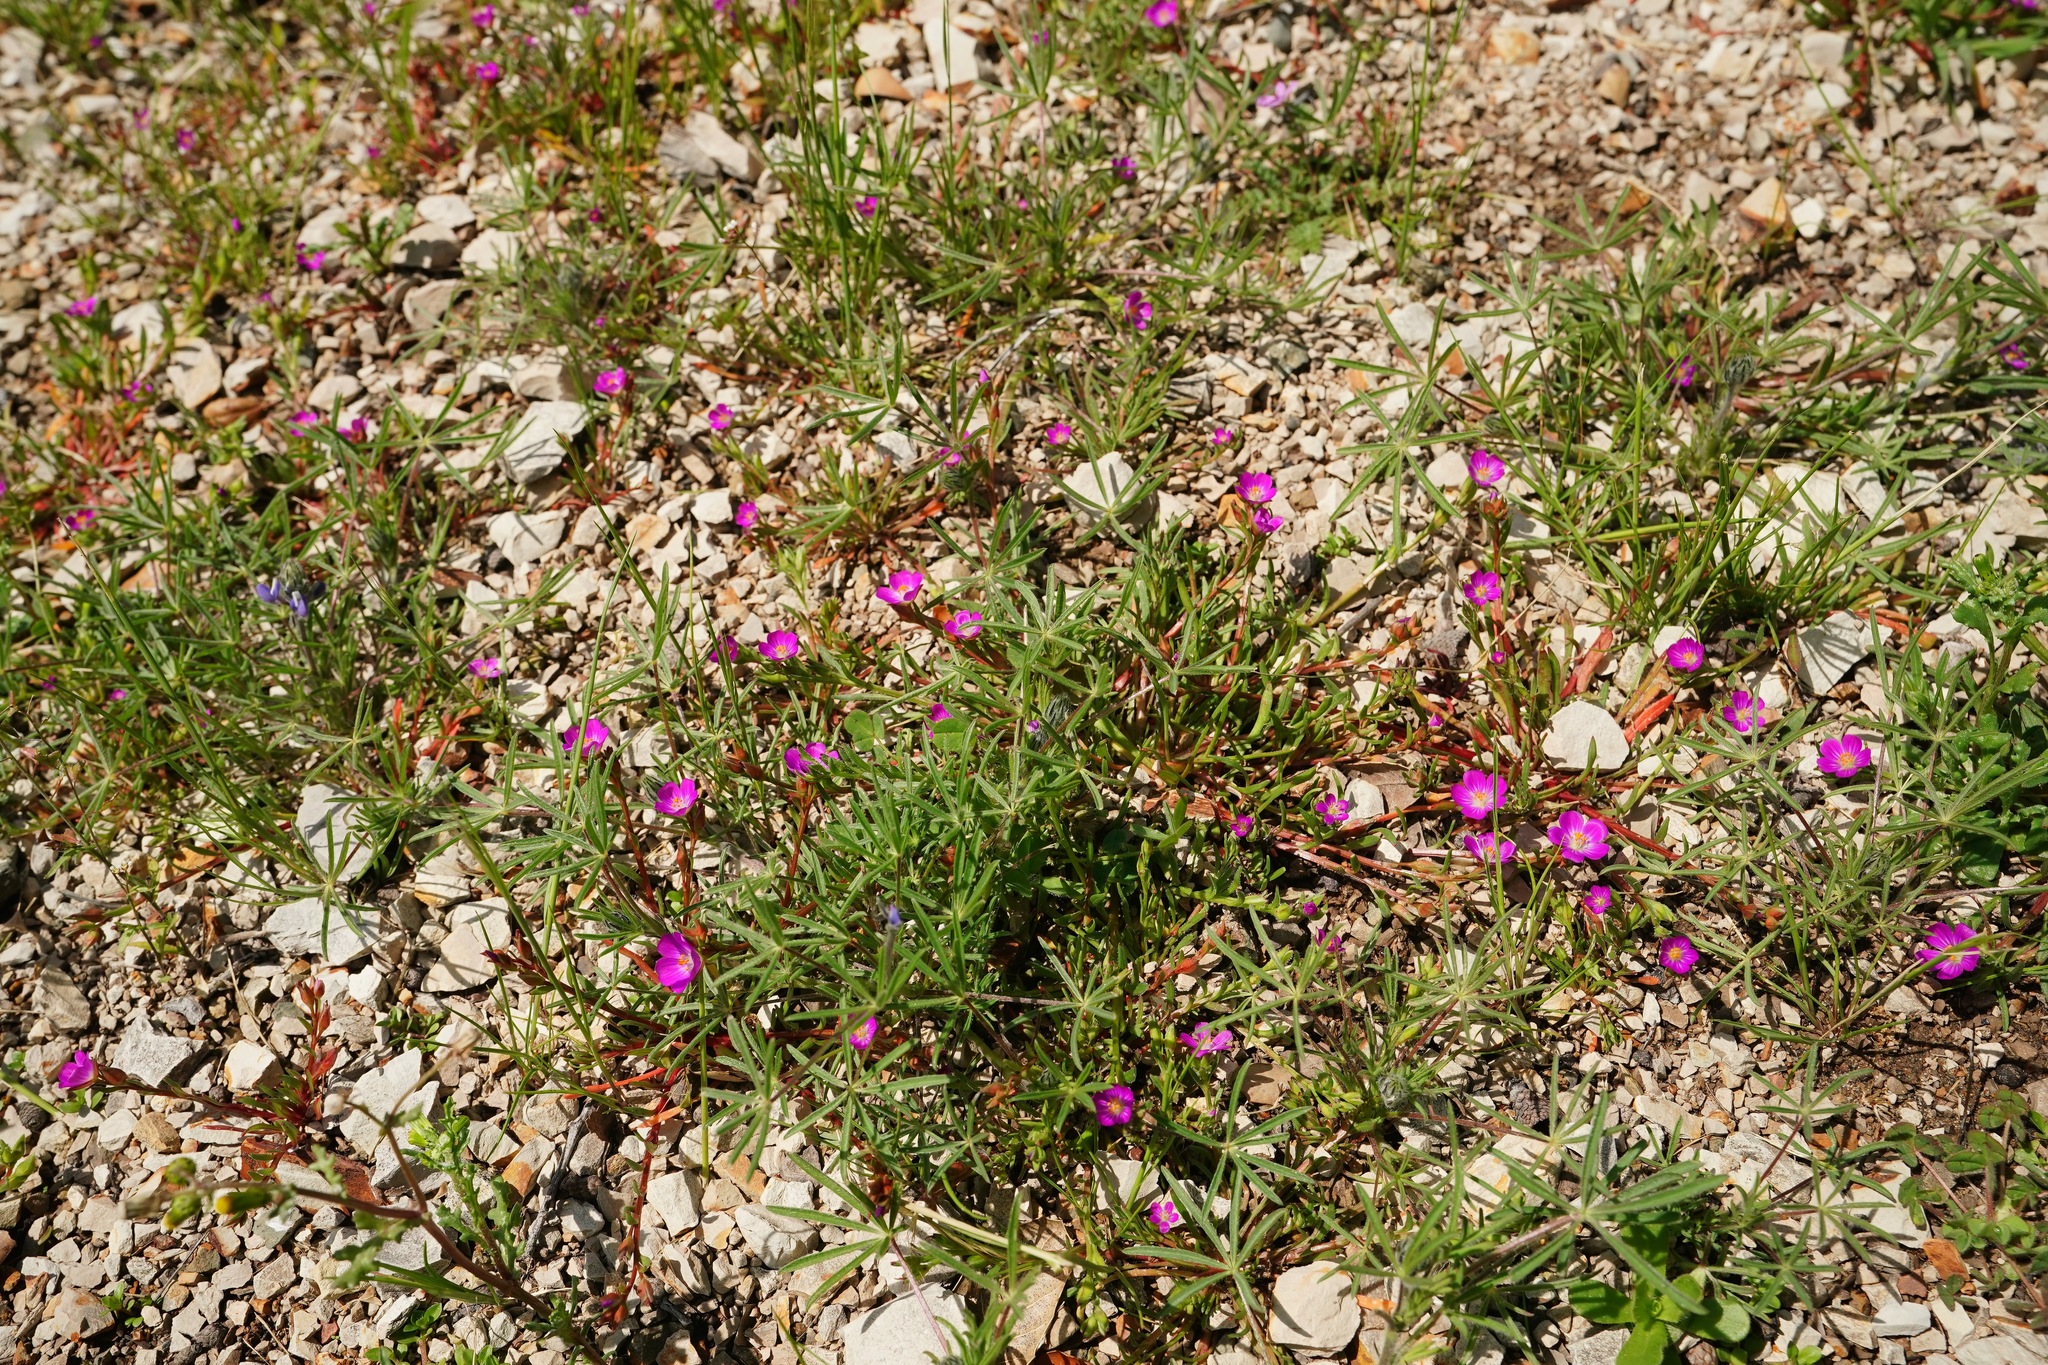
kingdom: Plantae
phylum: Tracheophyta
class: Magnoliopsida
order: Caryophyllales
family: Montiaceae
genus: Calandrinia
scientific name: Calandrinia menziesii
